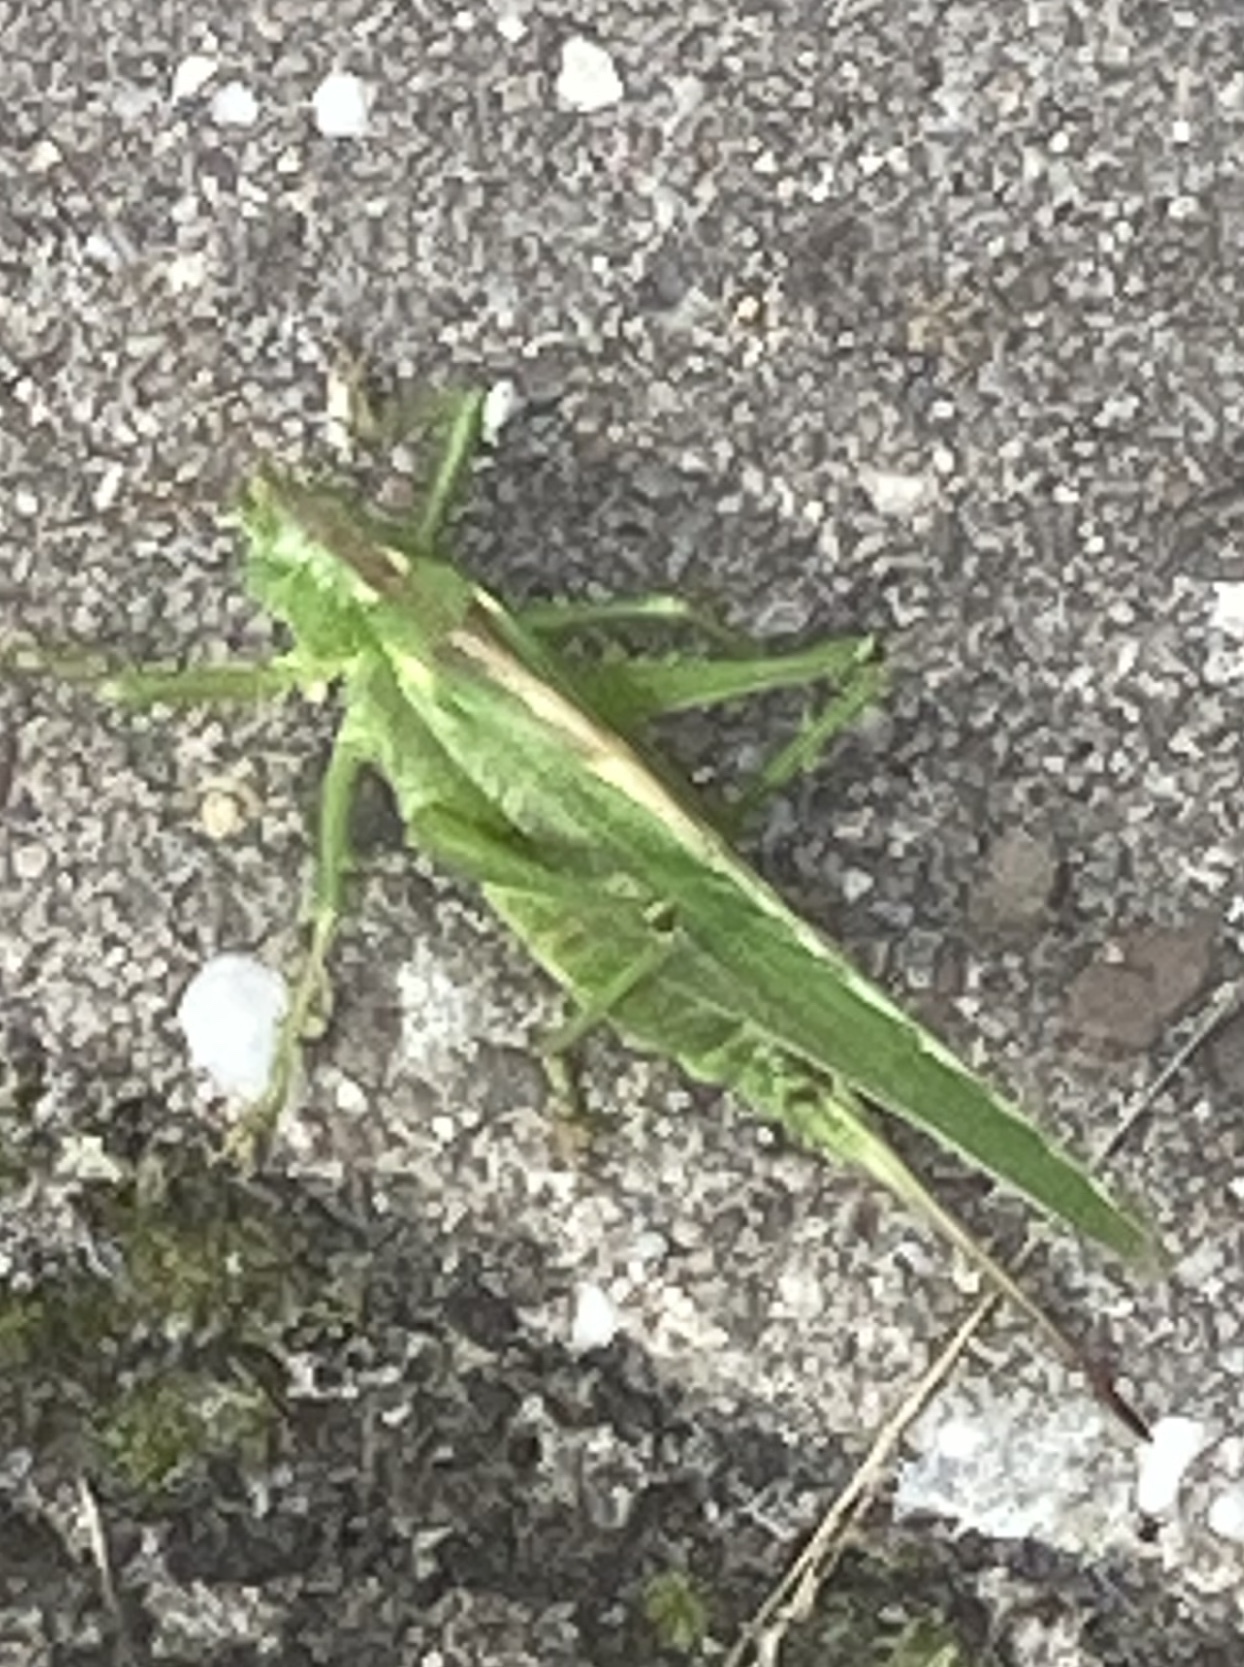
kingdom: Animalia
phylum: Arthropoda
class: Insecta
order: Orthoptera
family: Tettigoniidae
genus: Tettigonia
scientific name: Tettigonia viridissima
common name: Great green bush-cricket
